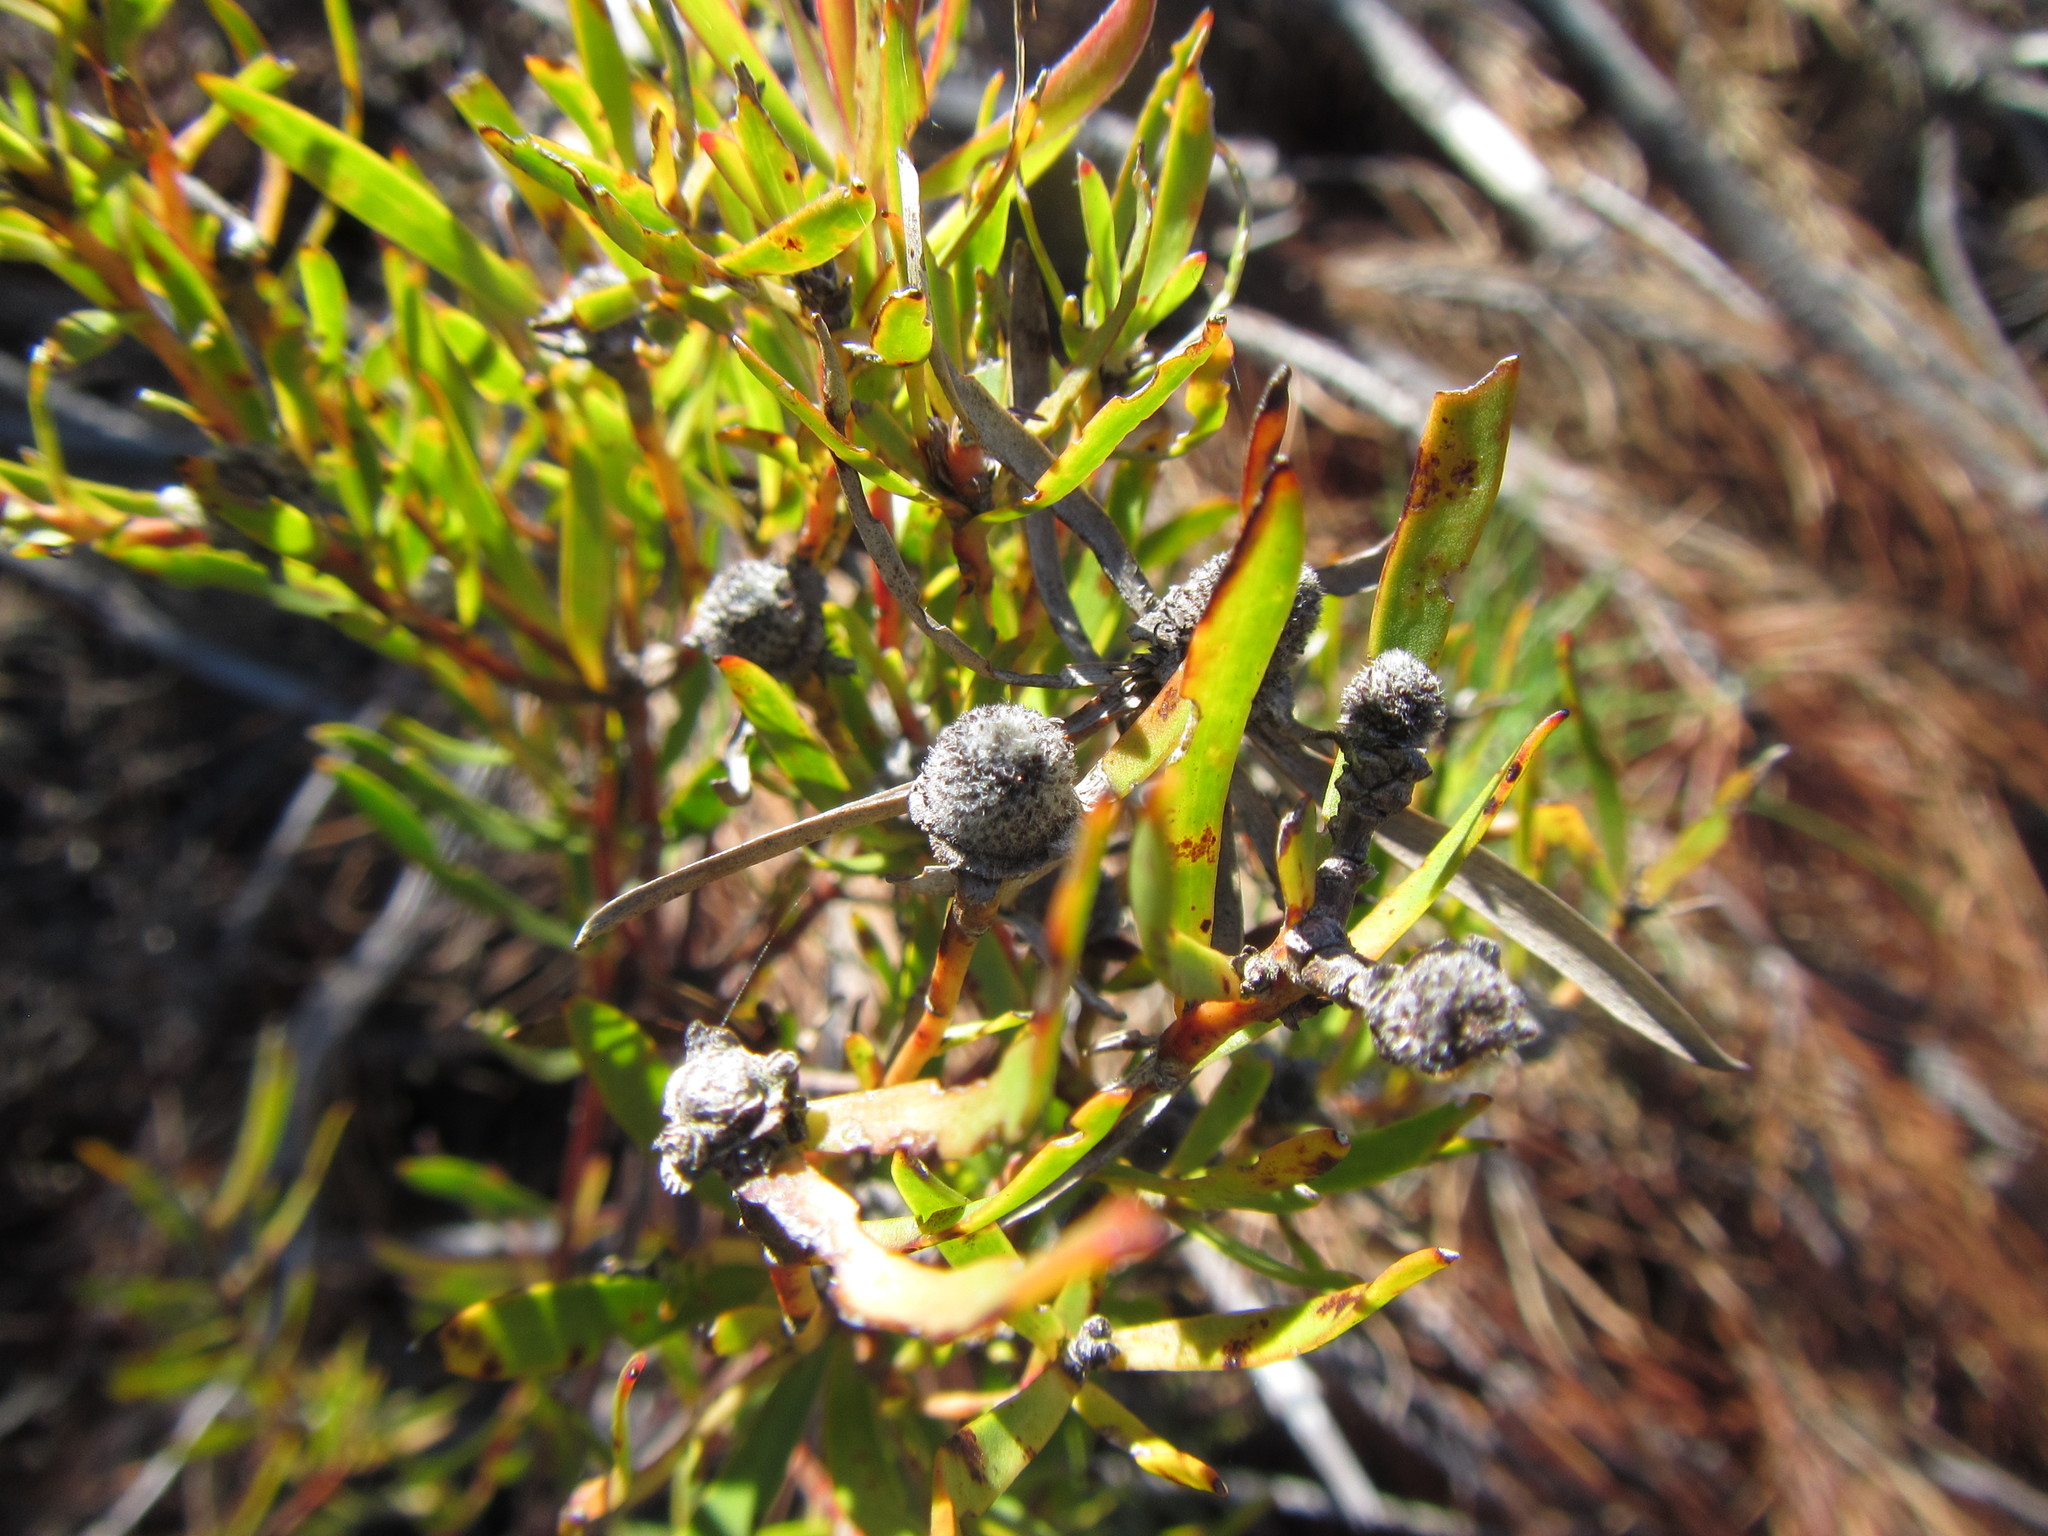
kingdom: Plantae
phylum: Tracheophyta
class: Magnoliopsida
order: Proteales
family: Proteaceae
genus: Leucadendron
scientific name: Leucadendron spissifolium
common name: Spear-leaf conebush
